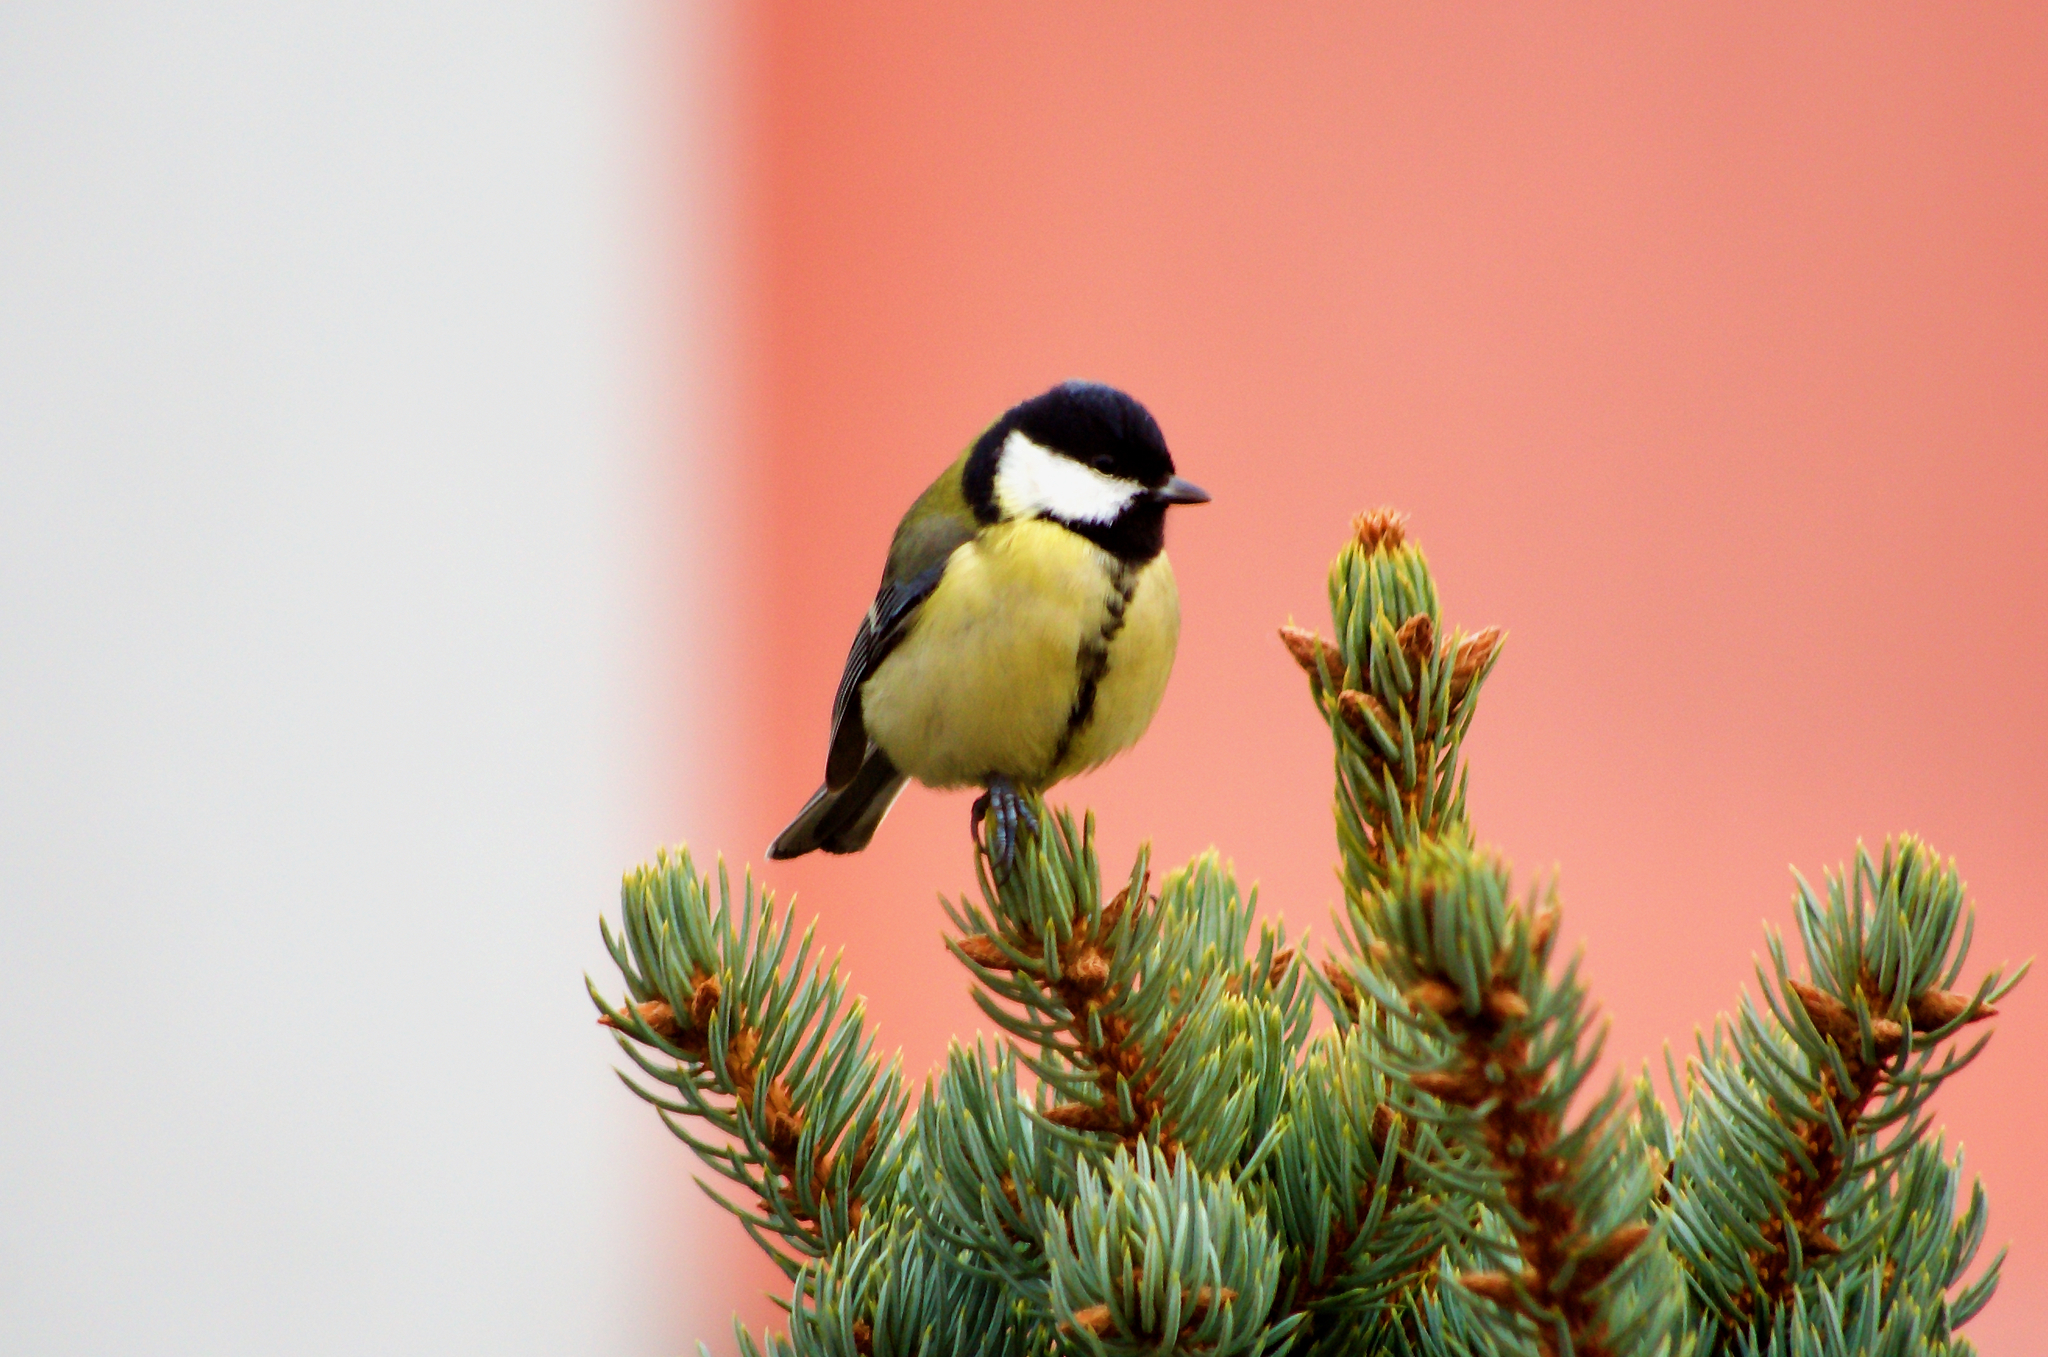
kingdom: Animalia
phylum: Chordata
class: Aves
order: Passeriformes
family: Paridae
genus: Parus
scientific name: Parus major
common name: Great tit
